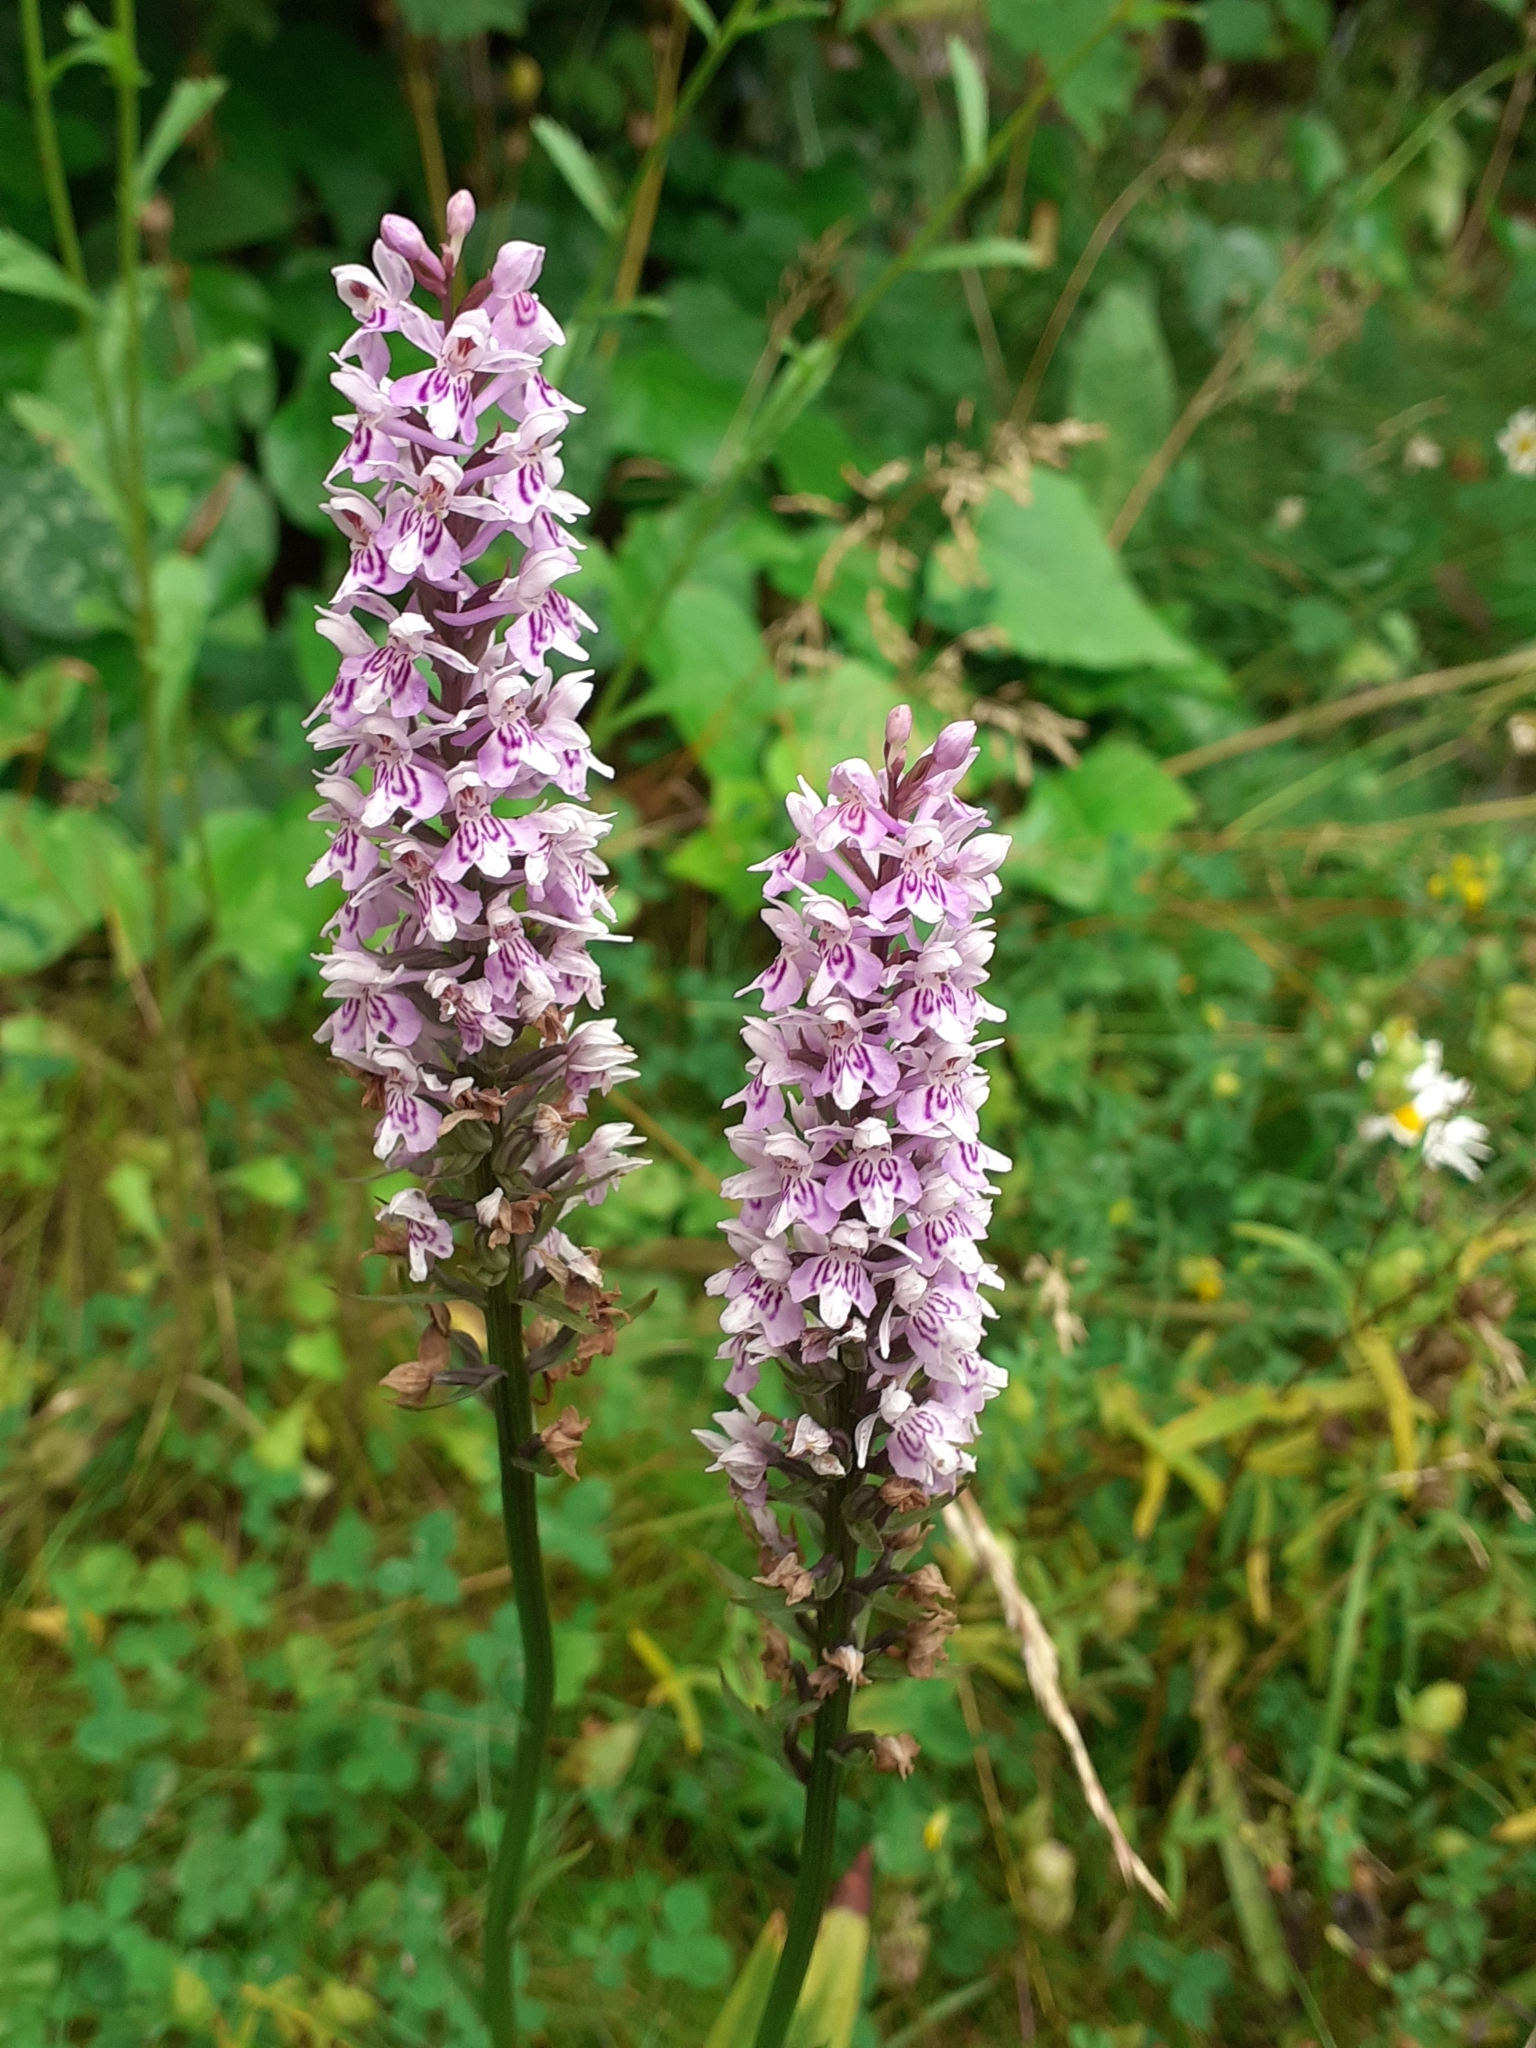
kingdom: Plantae
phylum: Tracheophyta
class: Liliopsida
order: Asparagales
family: Orchidaceae
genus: Dactylorhiza
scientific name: Dactylorhiza maculata
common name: Heath spotted-orchid
